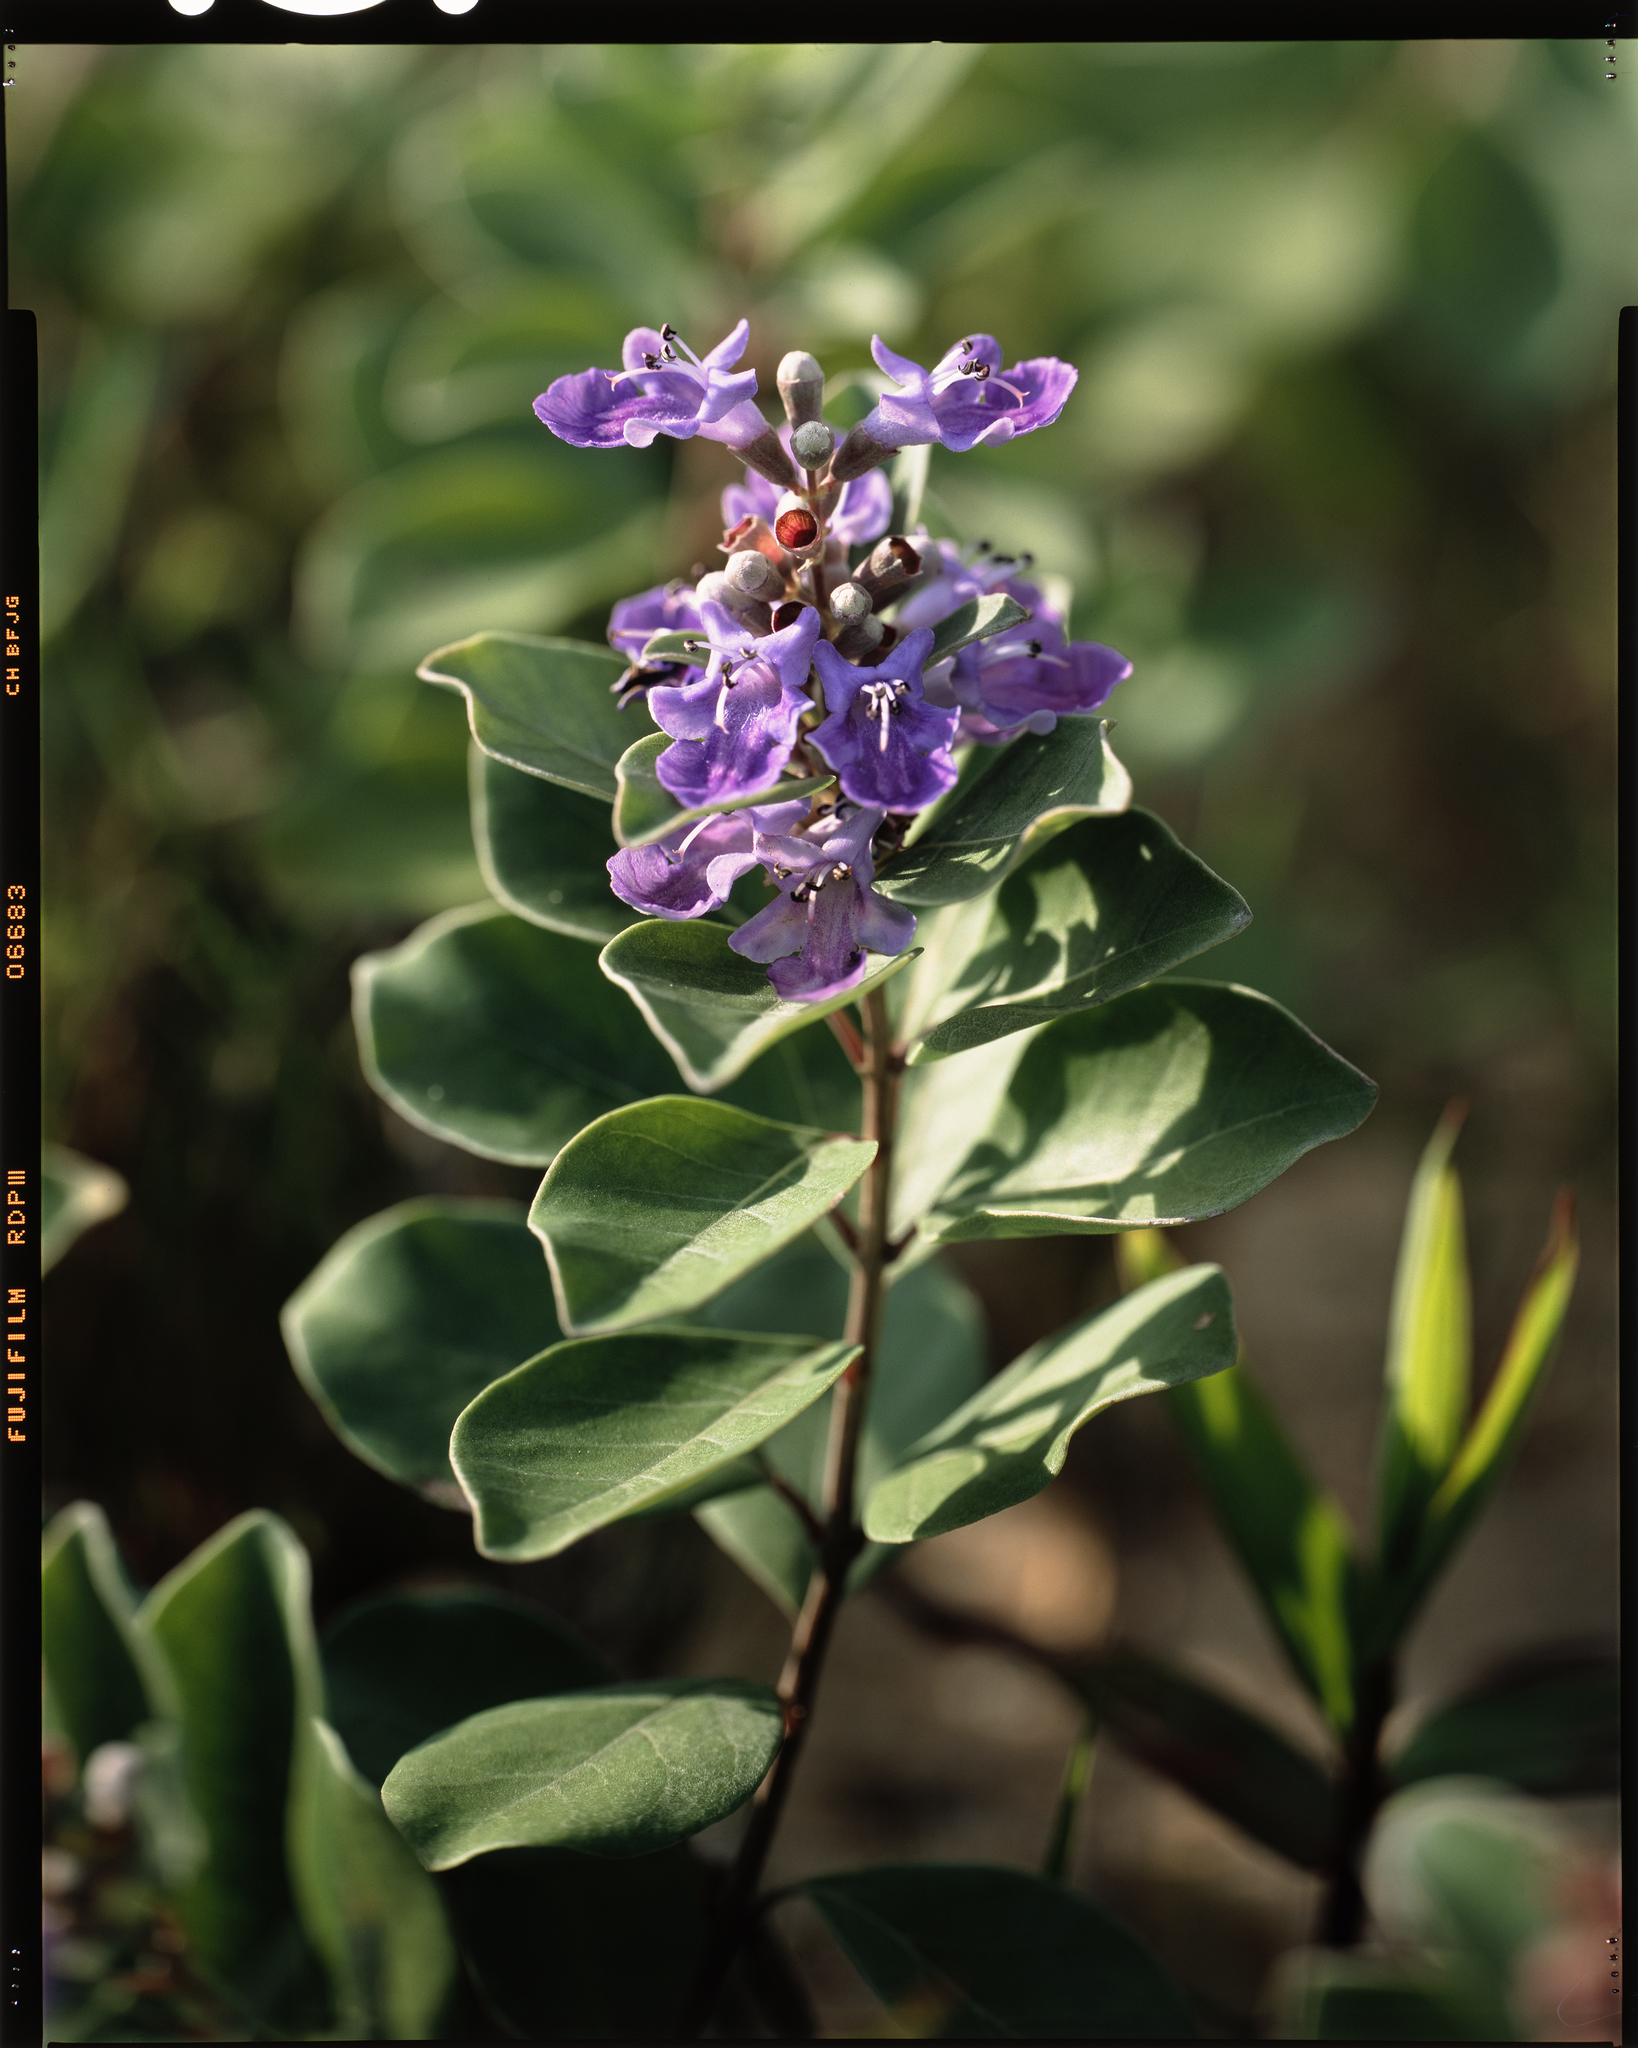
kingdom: Plantae
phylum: Tracheophyta
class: Magnoliopsida
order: Lamiales
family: Lamiaceae
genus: Vitex
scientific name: Vitex rotundifolia
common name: Beach vitex
